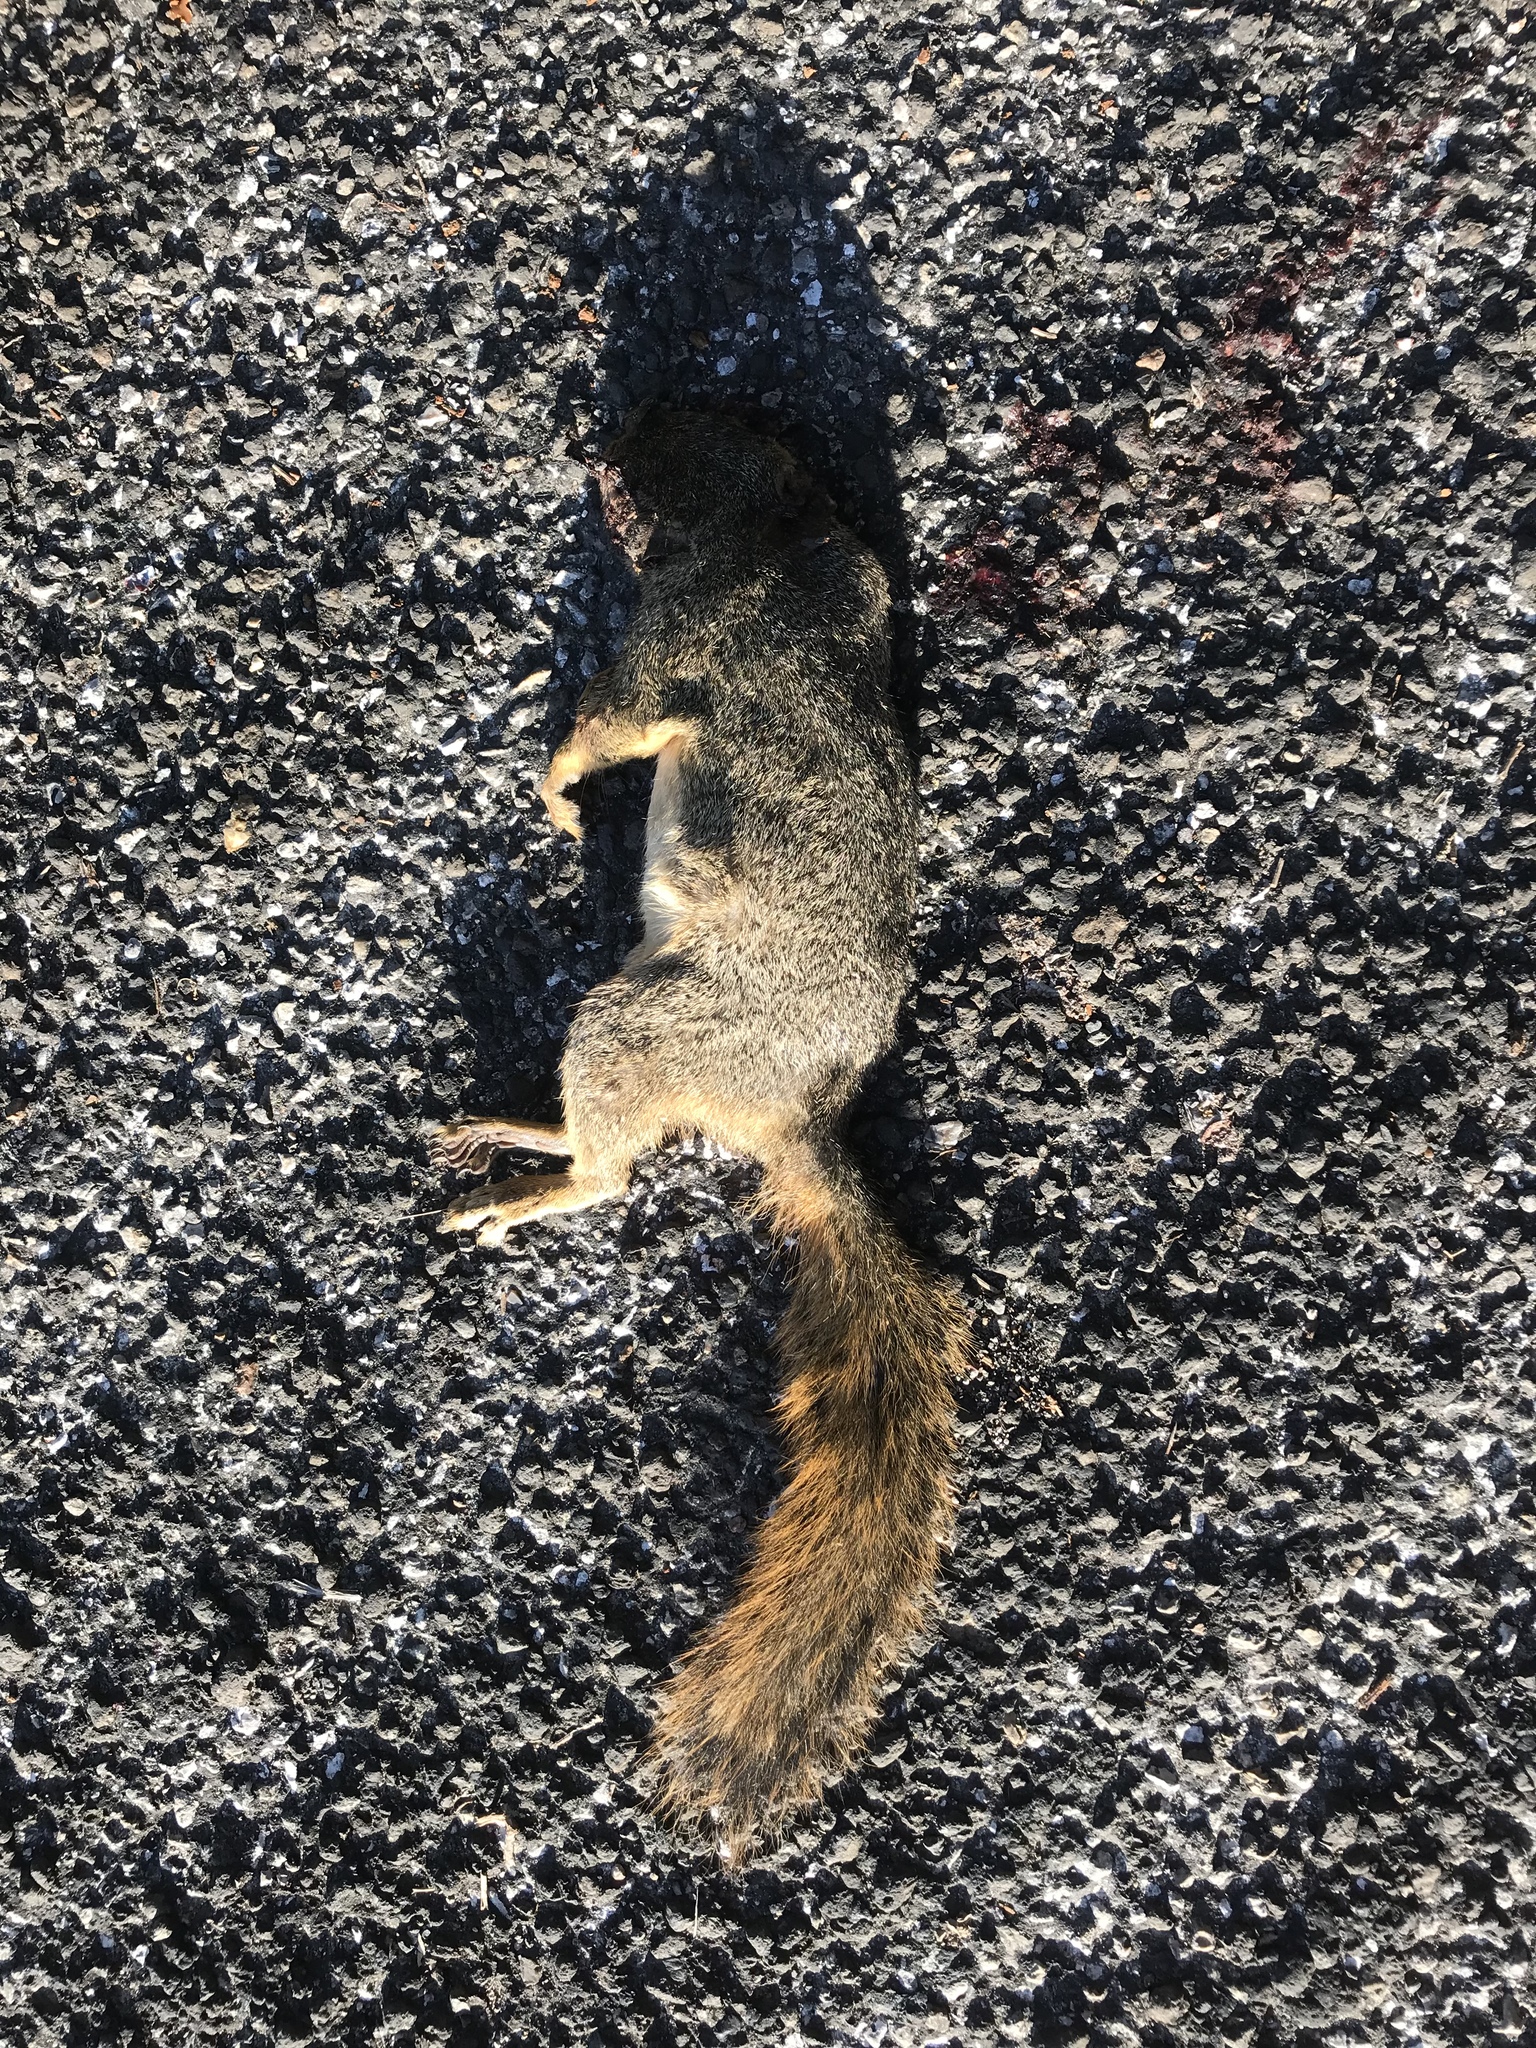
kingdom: Animalia
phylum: Chordata
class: Mammalia
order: Rodentia
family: Sciuridae
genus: Sciurus
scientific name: Sciurus niger
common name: Fox squirrel
